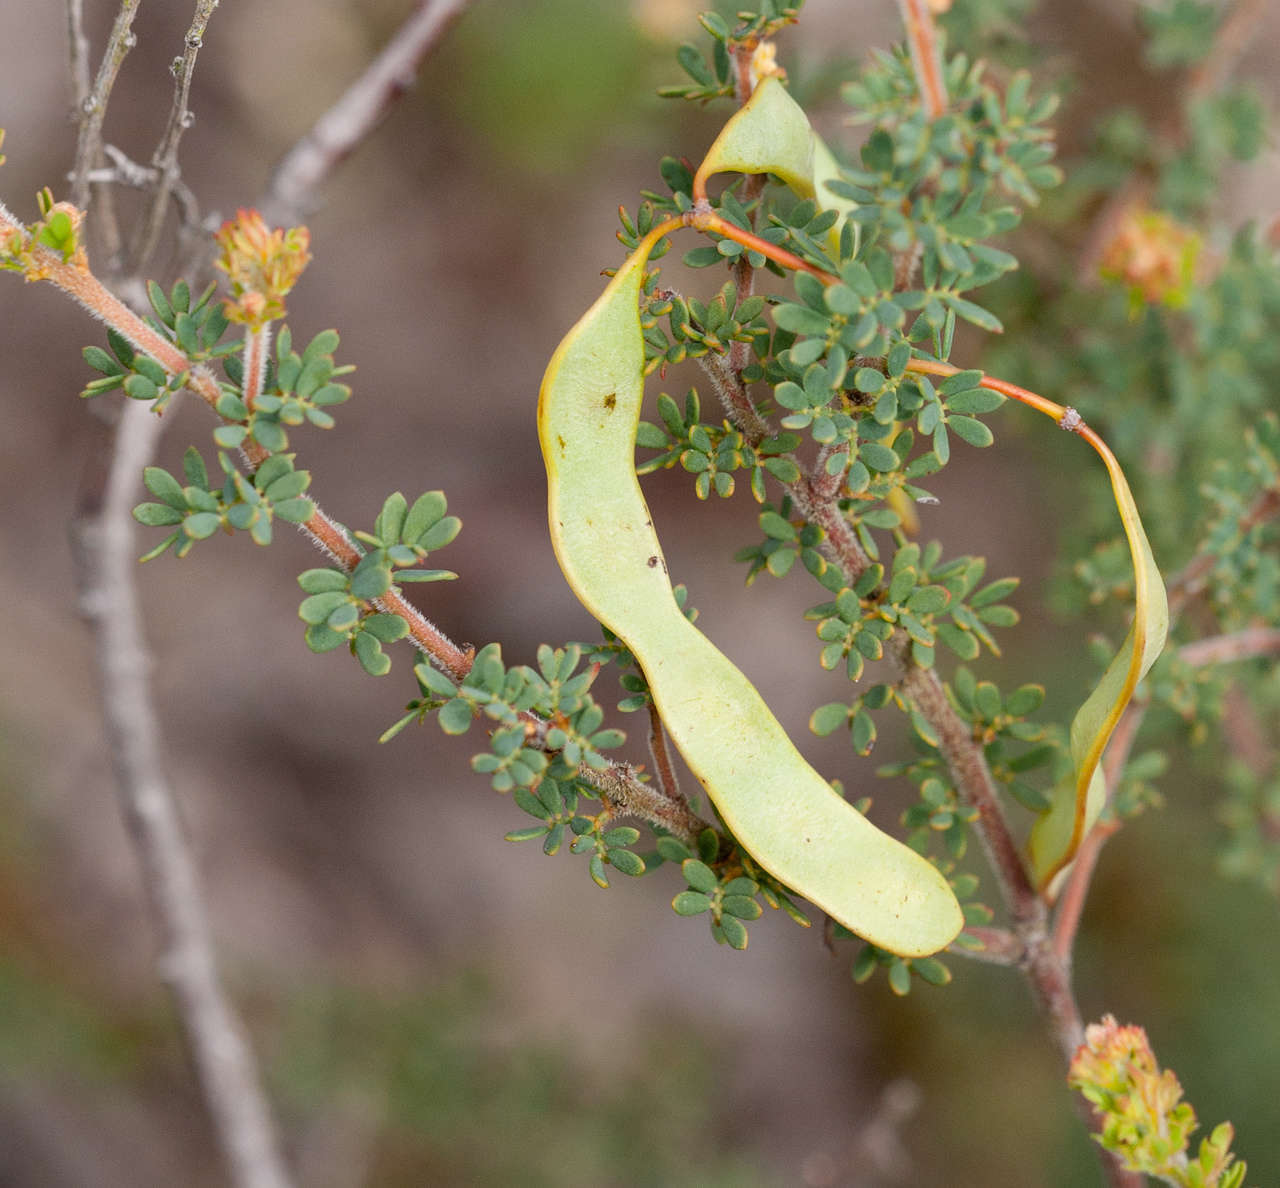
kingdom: Plantae
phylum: Tracheophyta
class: Magnoliopsida
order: Fabales
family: Fabaceae
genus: Acacia
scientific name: Acacia mitchellii
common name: Mitchell's wattle
